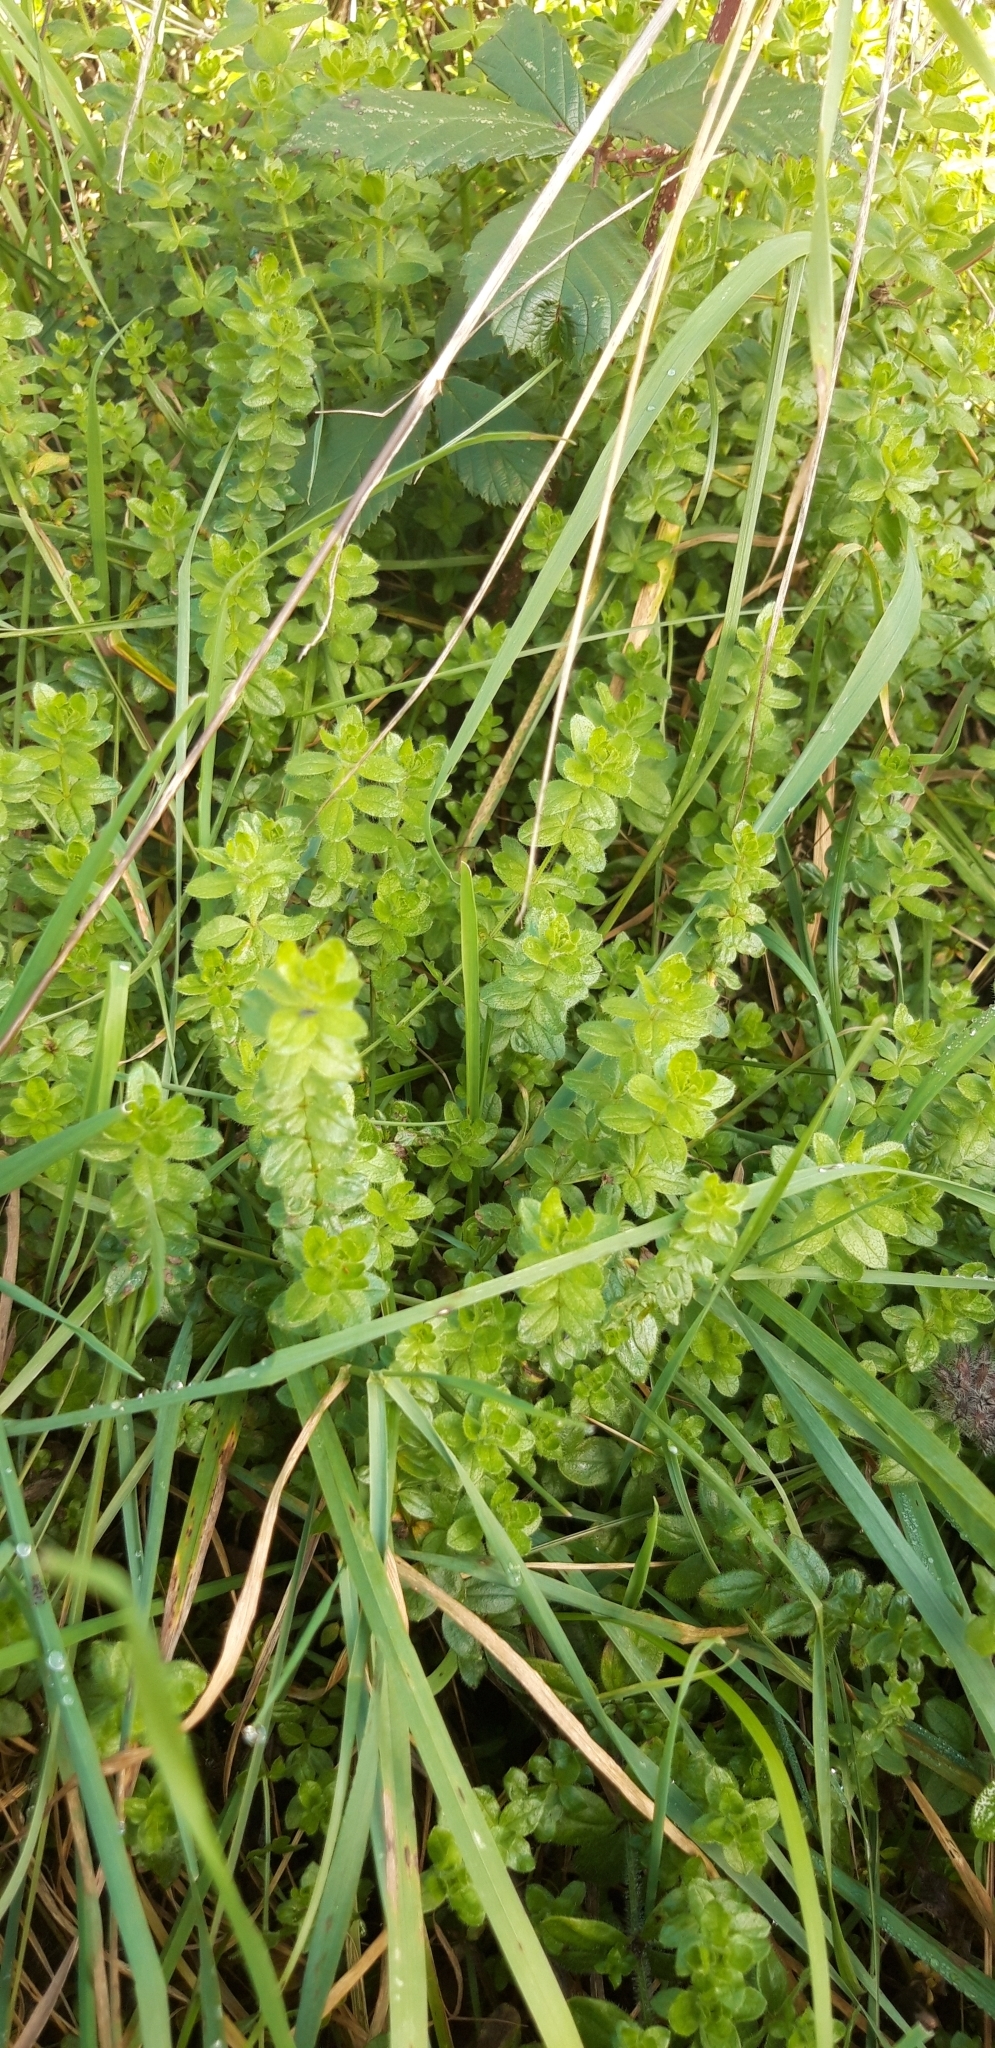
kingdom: Plantae
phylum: Tracheophyta
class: Magnoliopsida
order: Gentianales
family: Rubiaceae
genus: Cruciata
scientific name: Cruciata laevipes
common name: Crosswort
